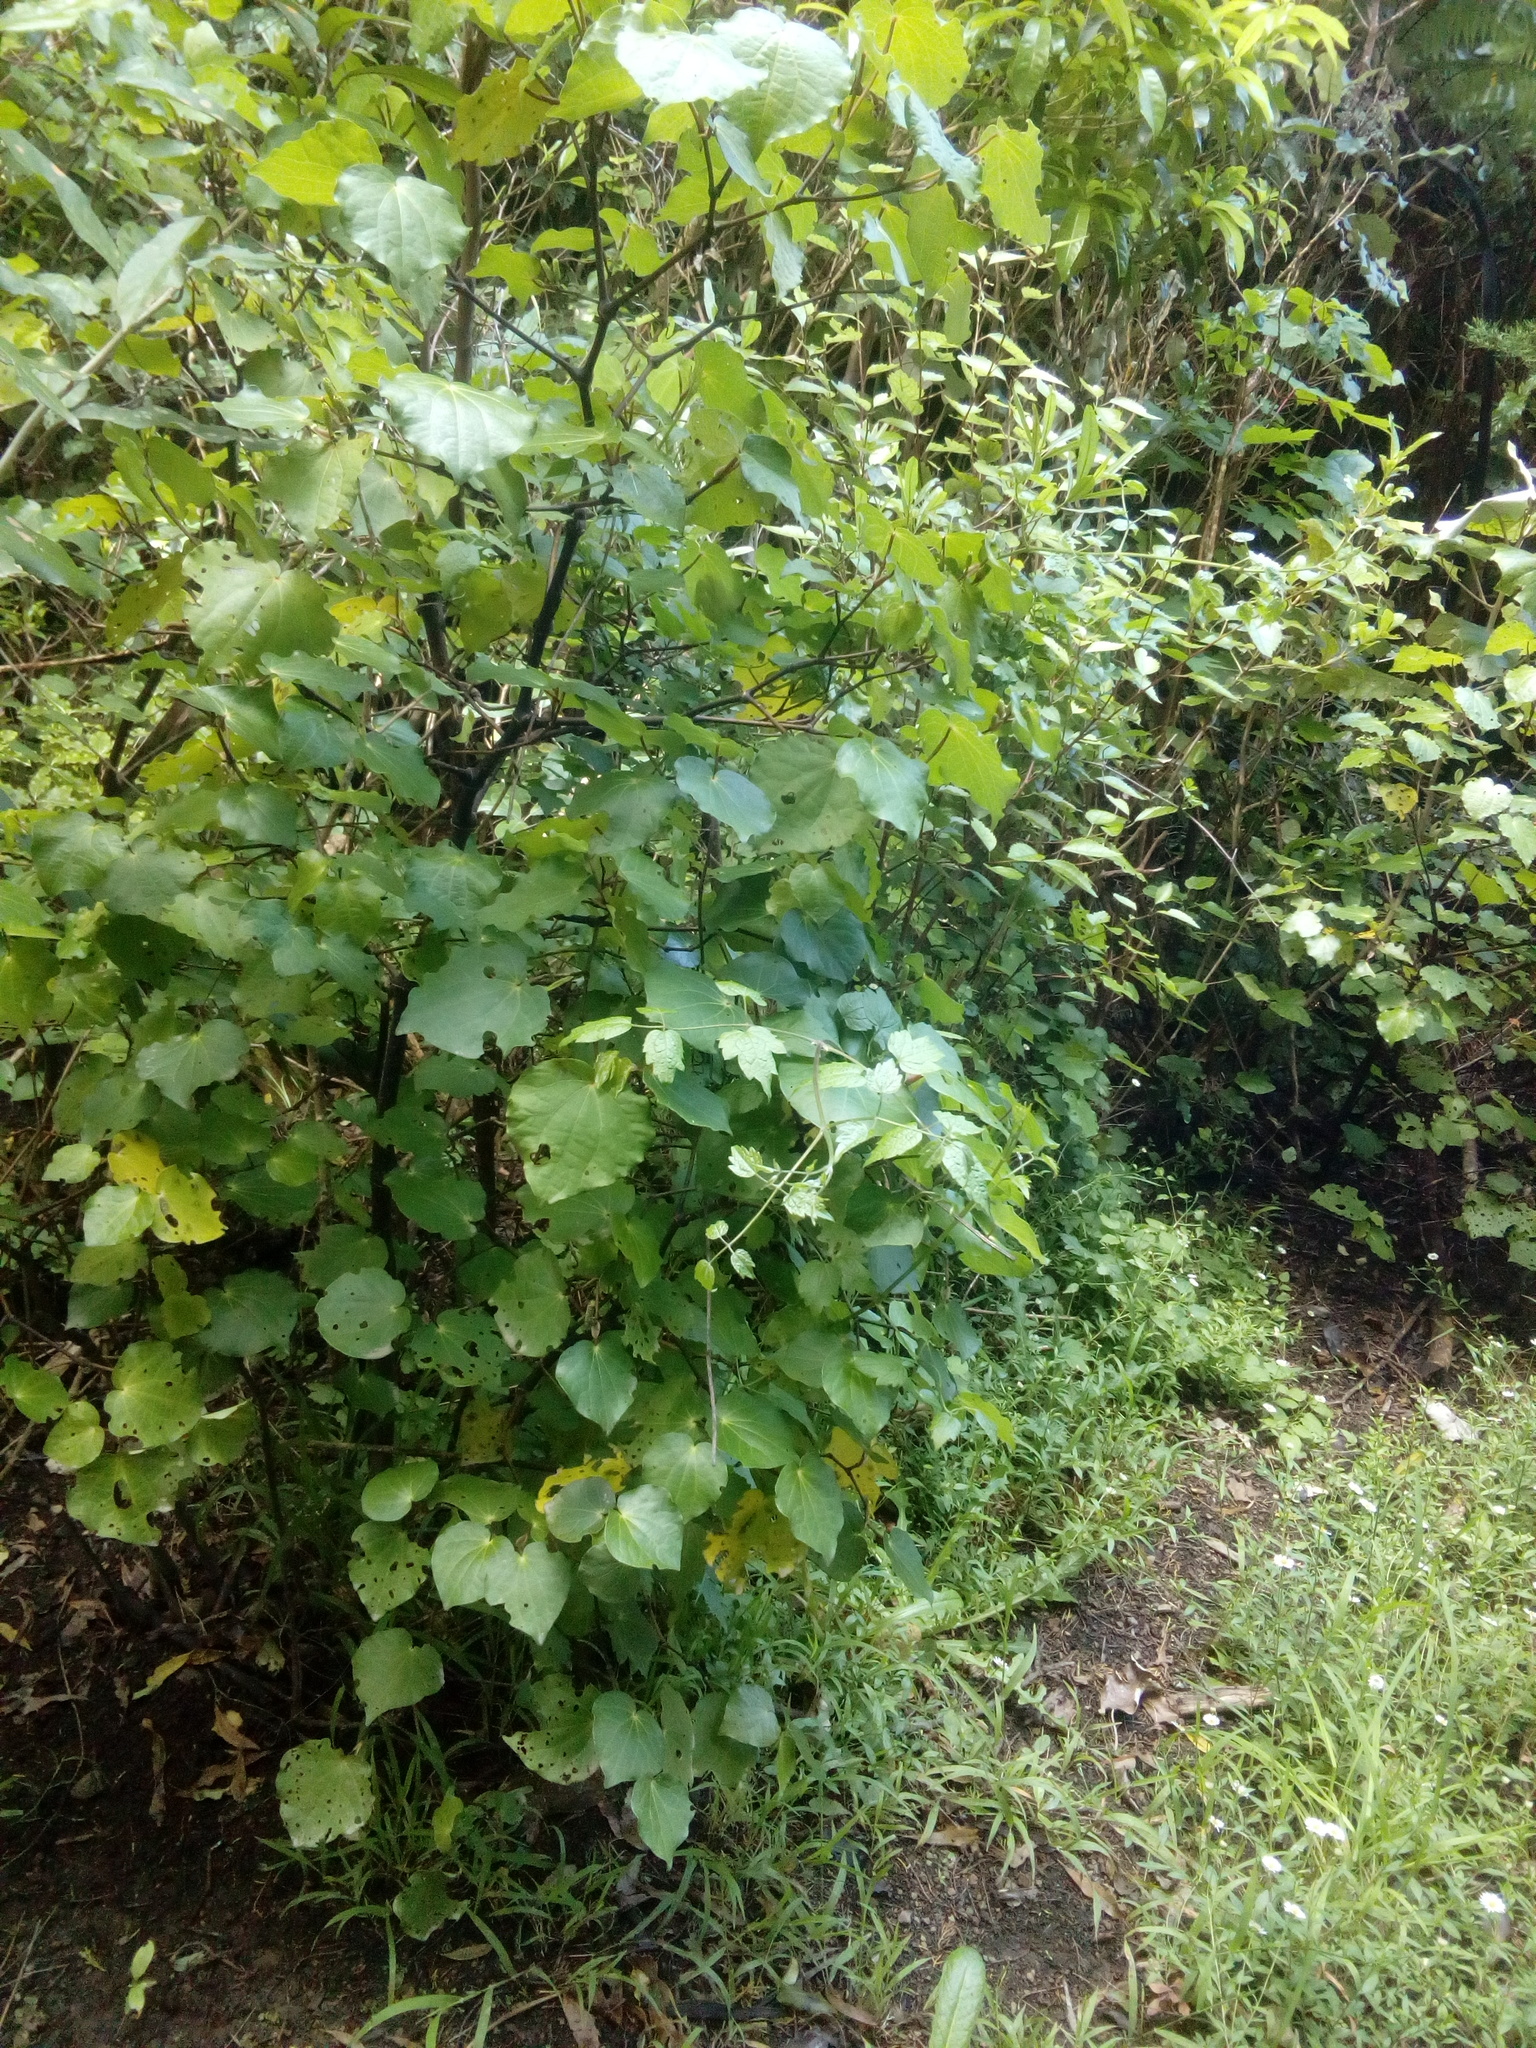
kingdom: Plantae
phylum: Tracheophyta
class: Magnoliopsida
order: Ranunculales
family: Ranunculaceae
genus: Clematis
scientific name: Clematis vitalba
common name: Evergreen clematis
